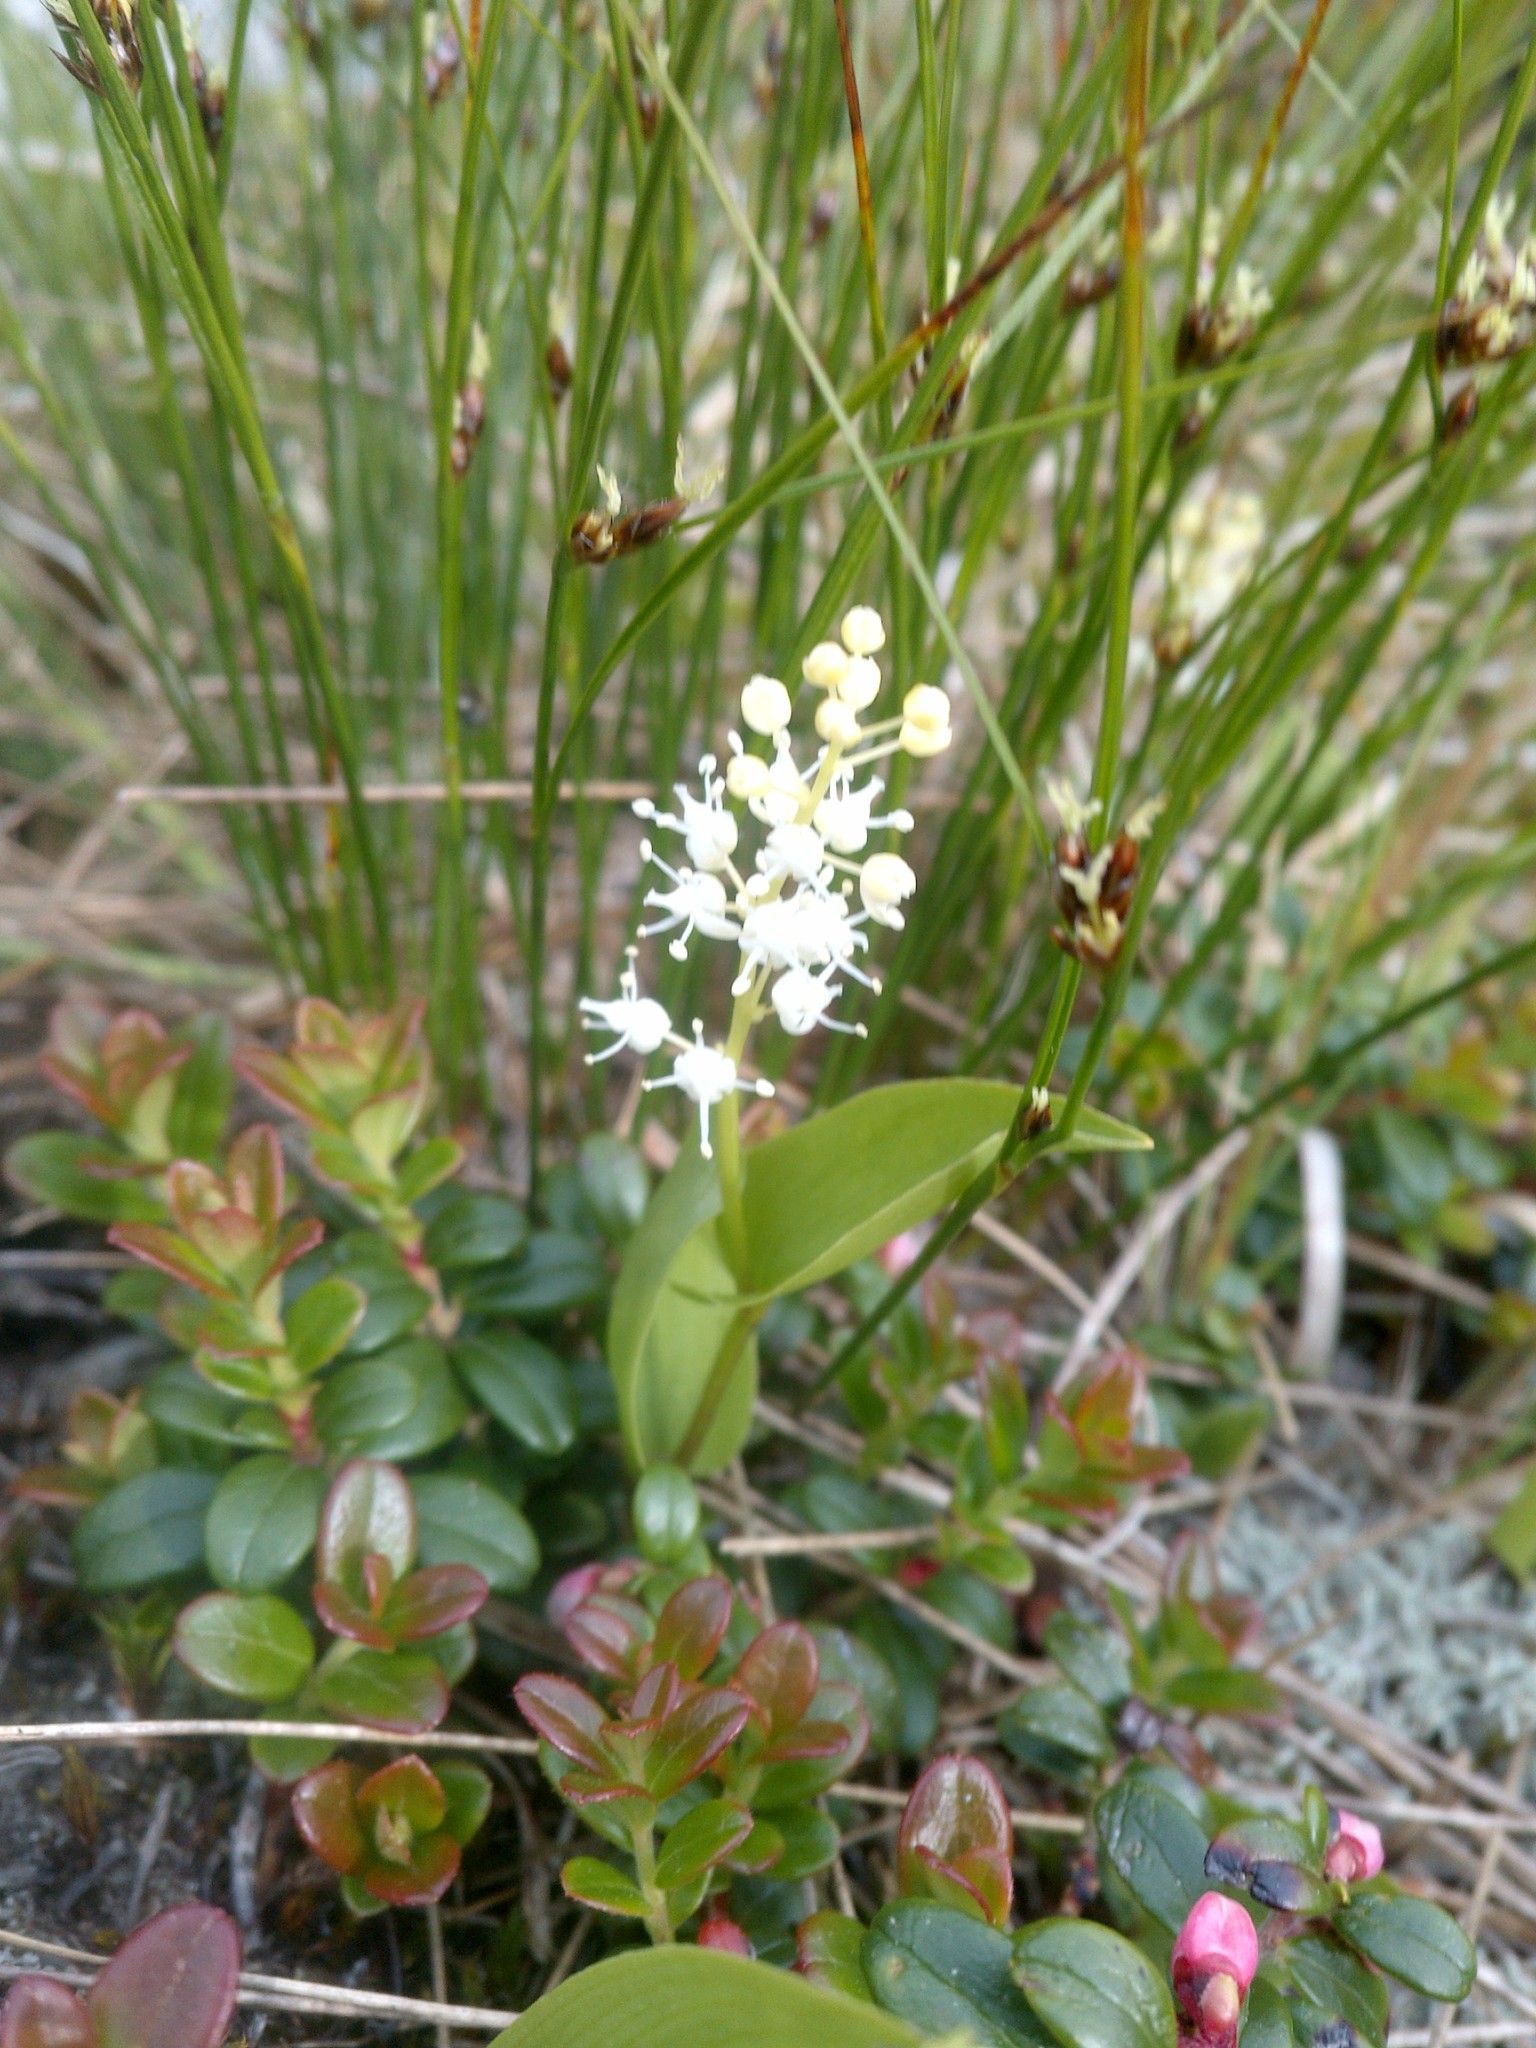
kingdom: Plantae
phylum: Tracheophyta
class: Liliopsida
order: Asparagales
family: Asparagaceae
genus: Maianthemum
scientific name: Maianthemum canadense
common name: False lily-of-the-valley
